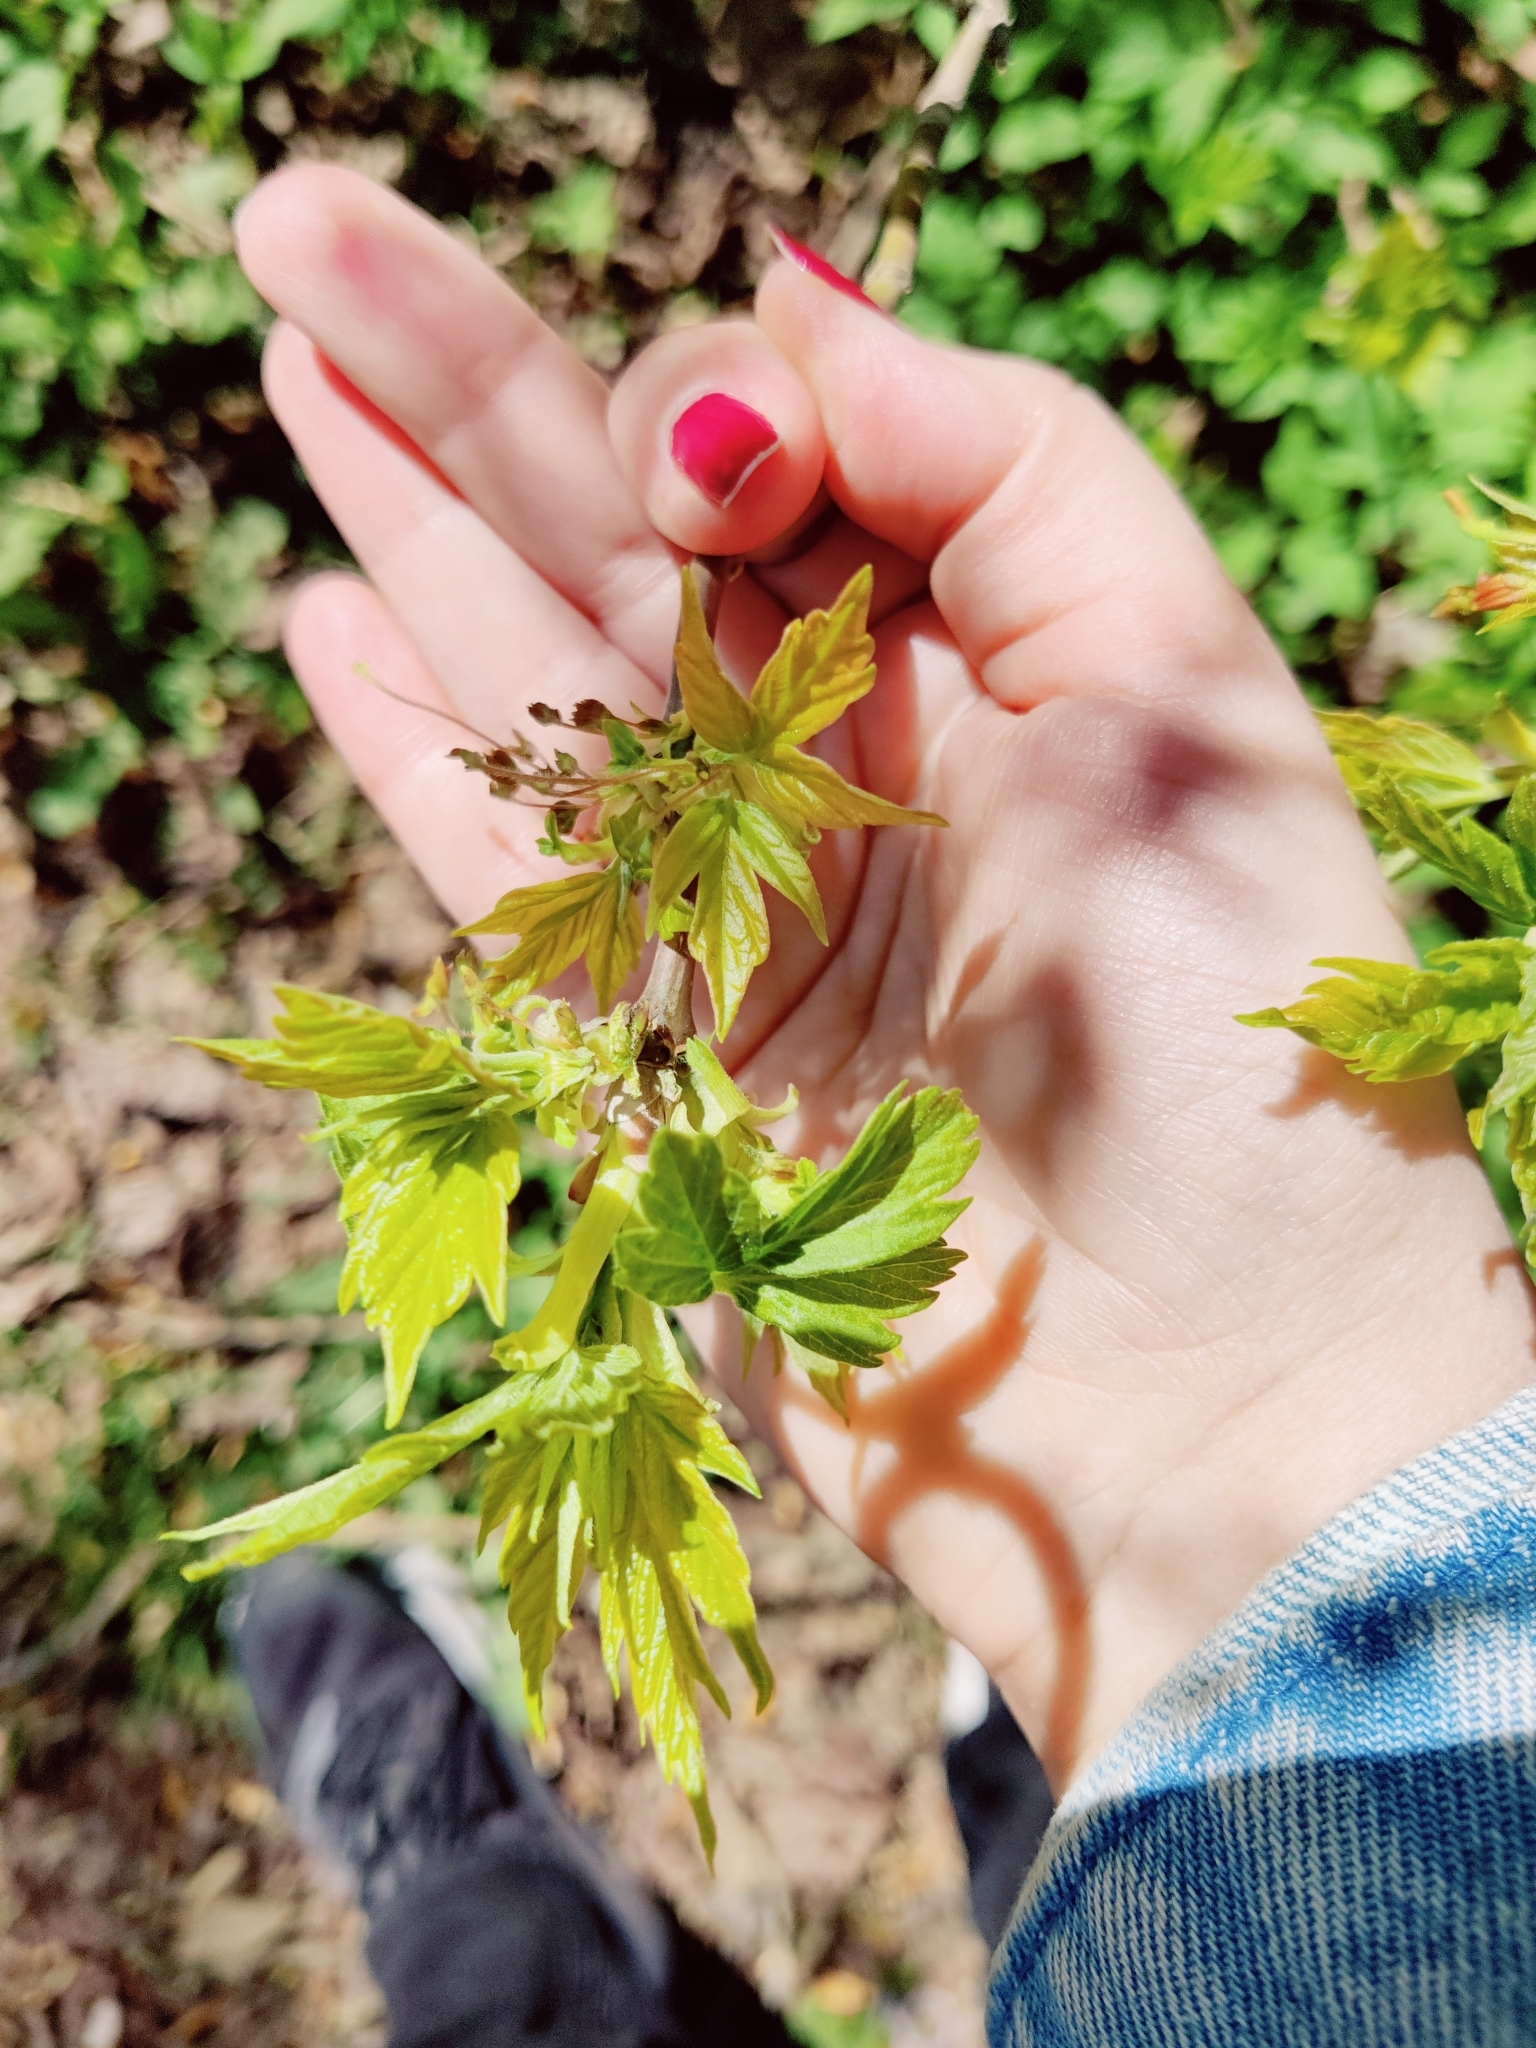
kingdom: Plantae
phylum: Tracheophyta
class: Magnoliopsida
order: Sapindales
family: Sapindaceae
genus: Acer
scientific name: Acer negundo
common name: Ashleaf maple
